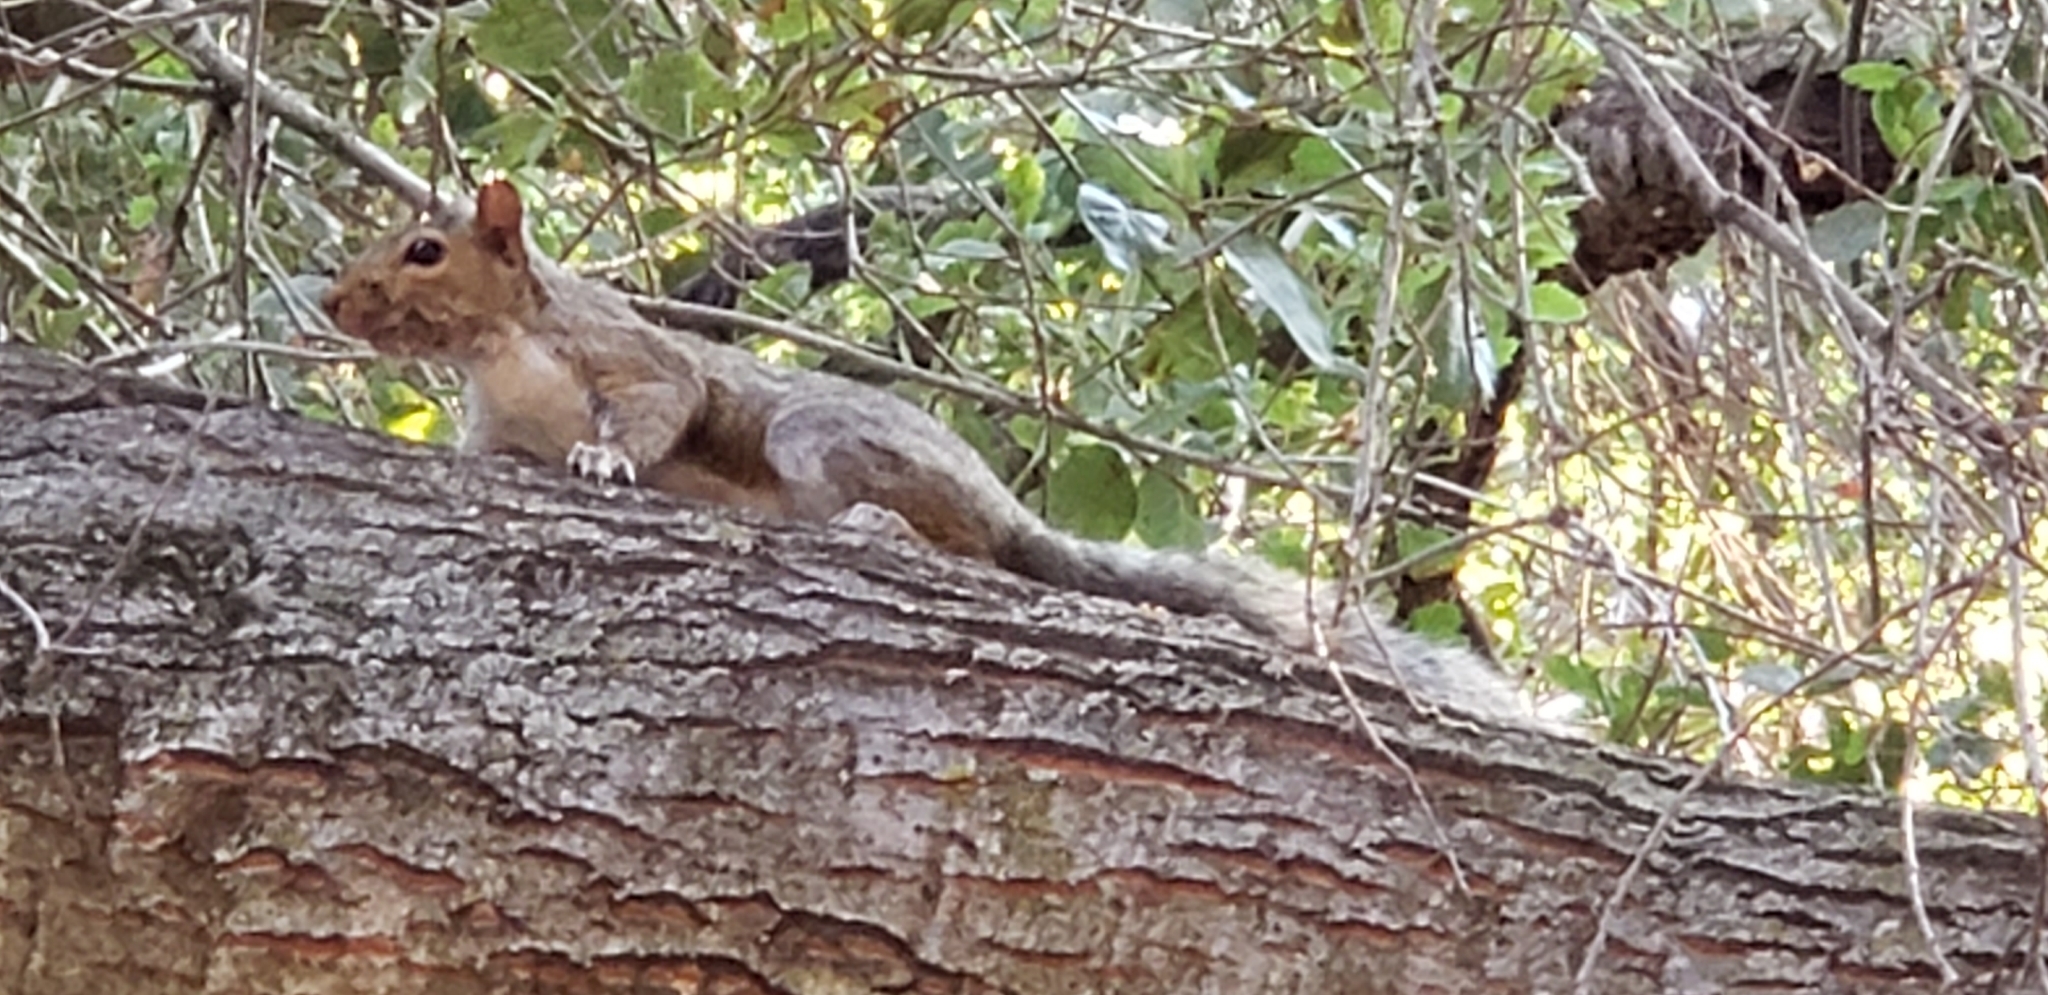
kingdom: Animalia
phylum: Chordata
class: Mammalia
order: Rodentia
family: Sciuridae
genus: Sciurus
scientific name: Sciurus carolinensis
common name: Eastern gray squirrel
